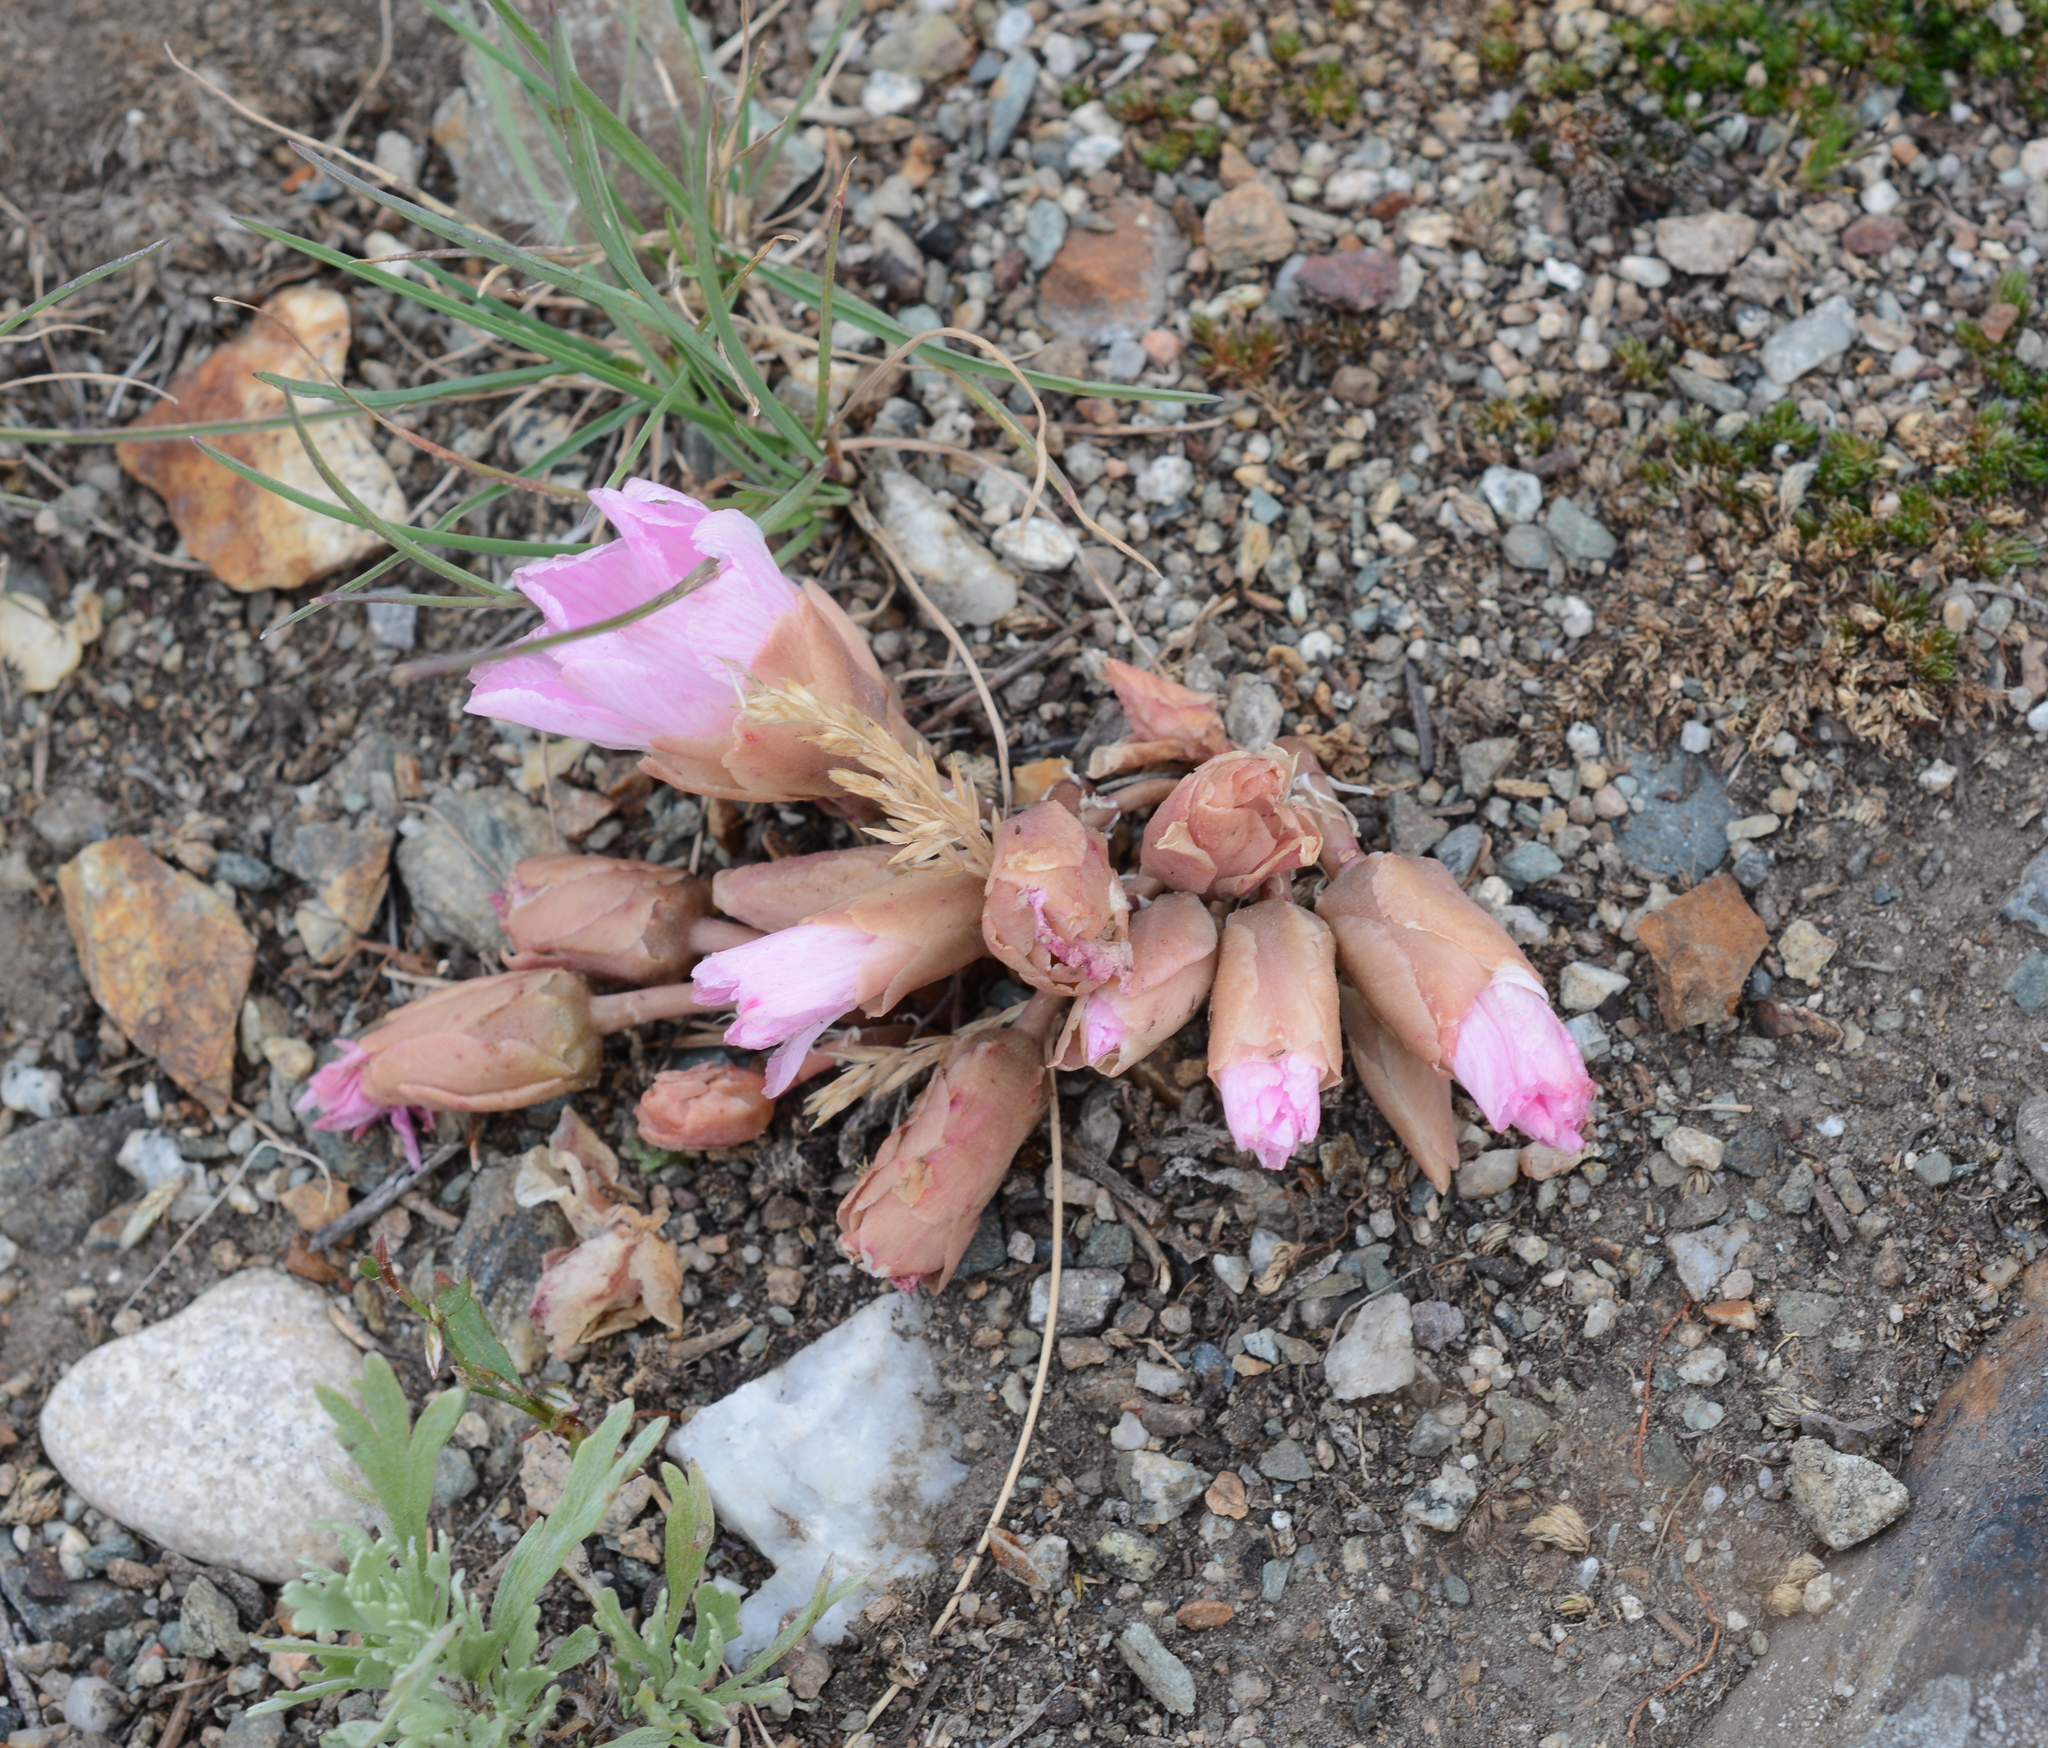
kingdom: Plantae
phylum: Tracheophyta
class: Magnoliopsida
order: Caryophyllales
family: Montiaceae
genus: Lewisia
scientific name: Lewisia rediviva
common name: Bitter-root
